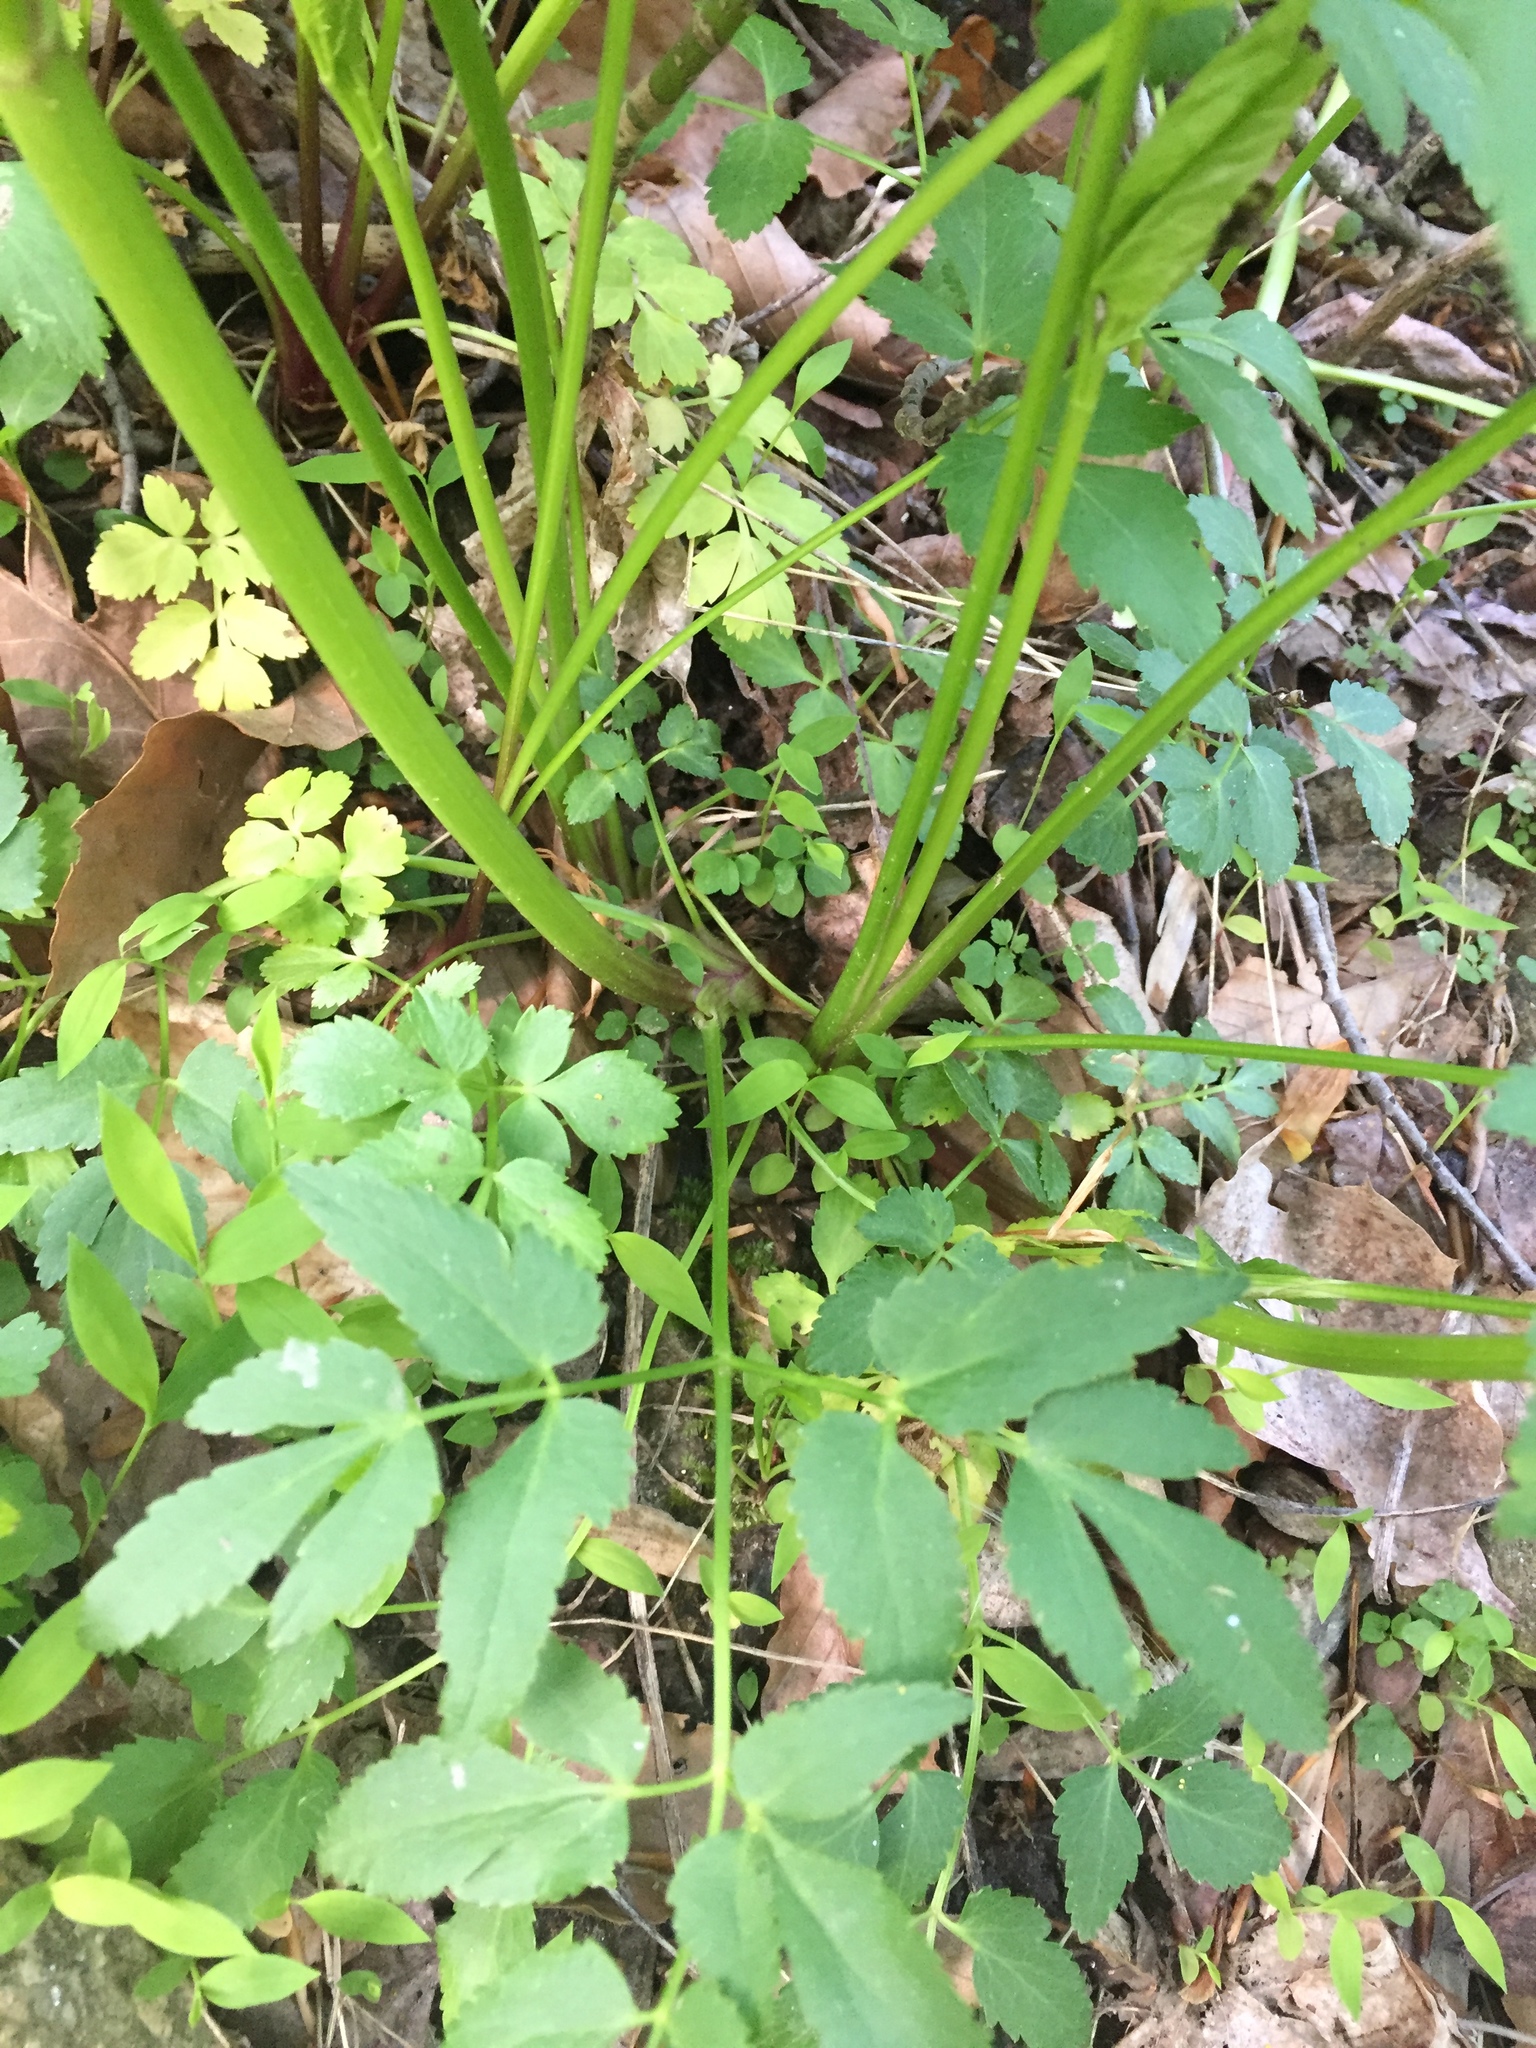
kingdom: Plantae
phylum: Tracheophyta
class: Magnoliopsida
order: Apiales
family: Apiaceae
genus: Zizia
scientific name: Zizia aurea
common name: Golden alexanders
